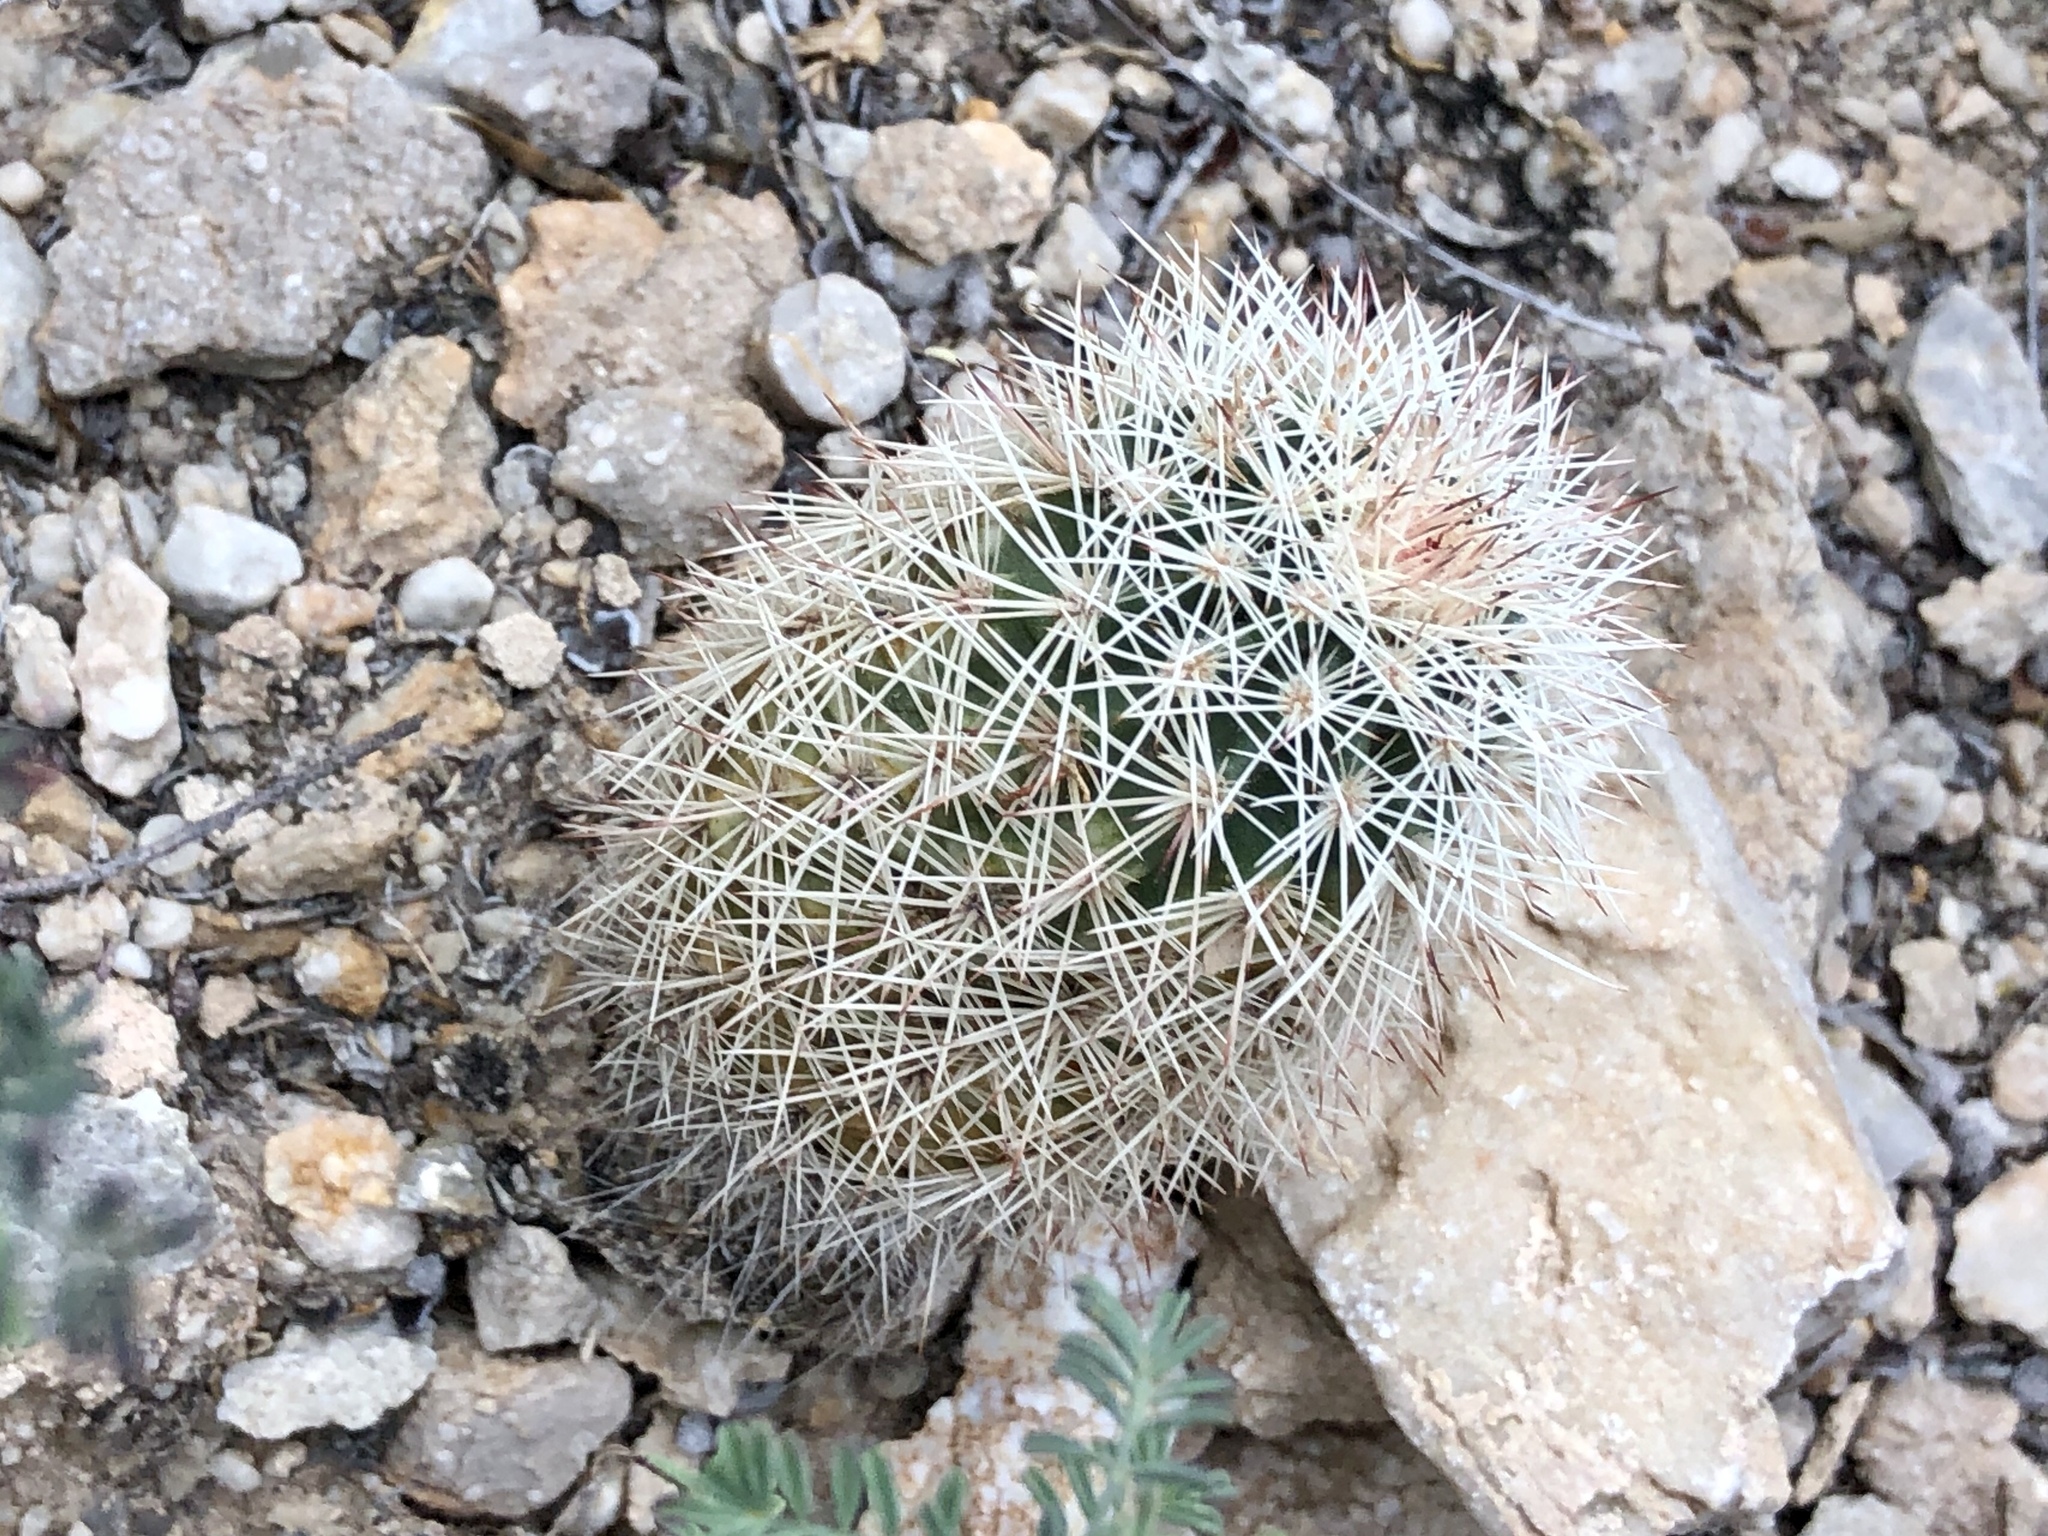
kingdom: Plantae
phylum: Tracheophyta
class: Magnoliopsida
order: Caryophyllales
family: Cactaceae
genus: Echinocereus
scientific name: Echinocereus dasyacanthus
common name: Spiny hedgehog cactus
